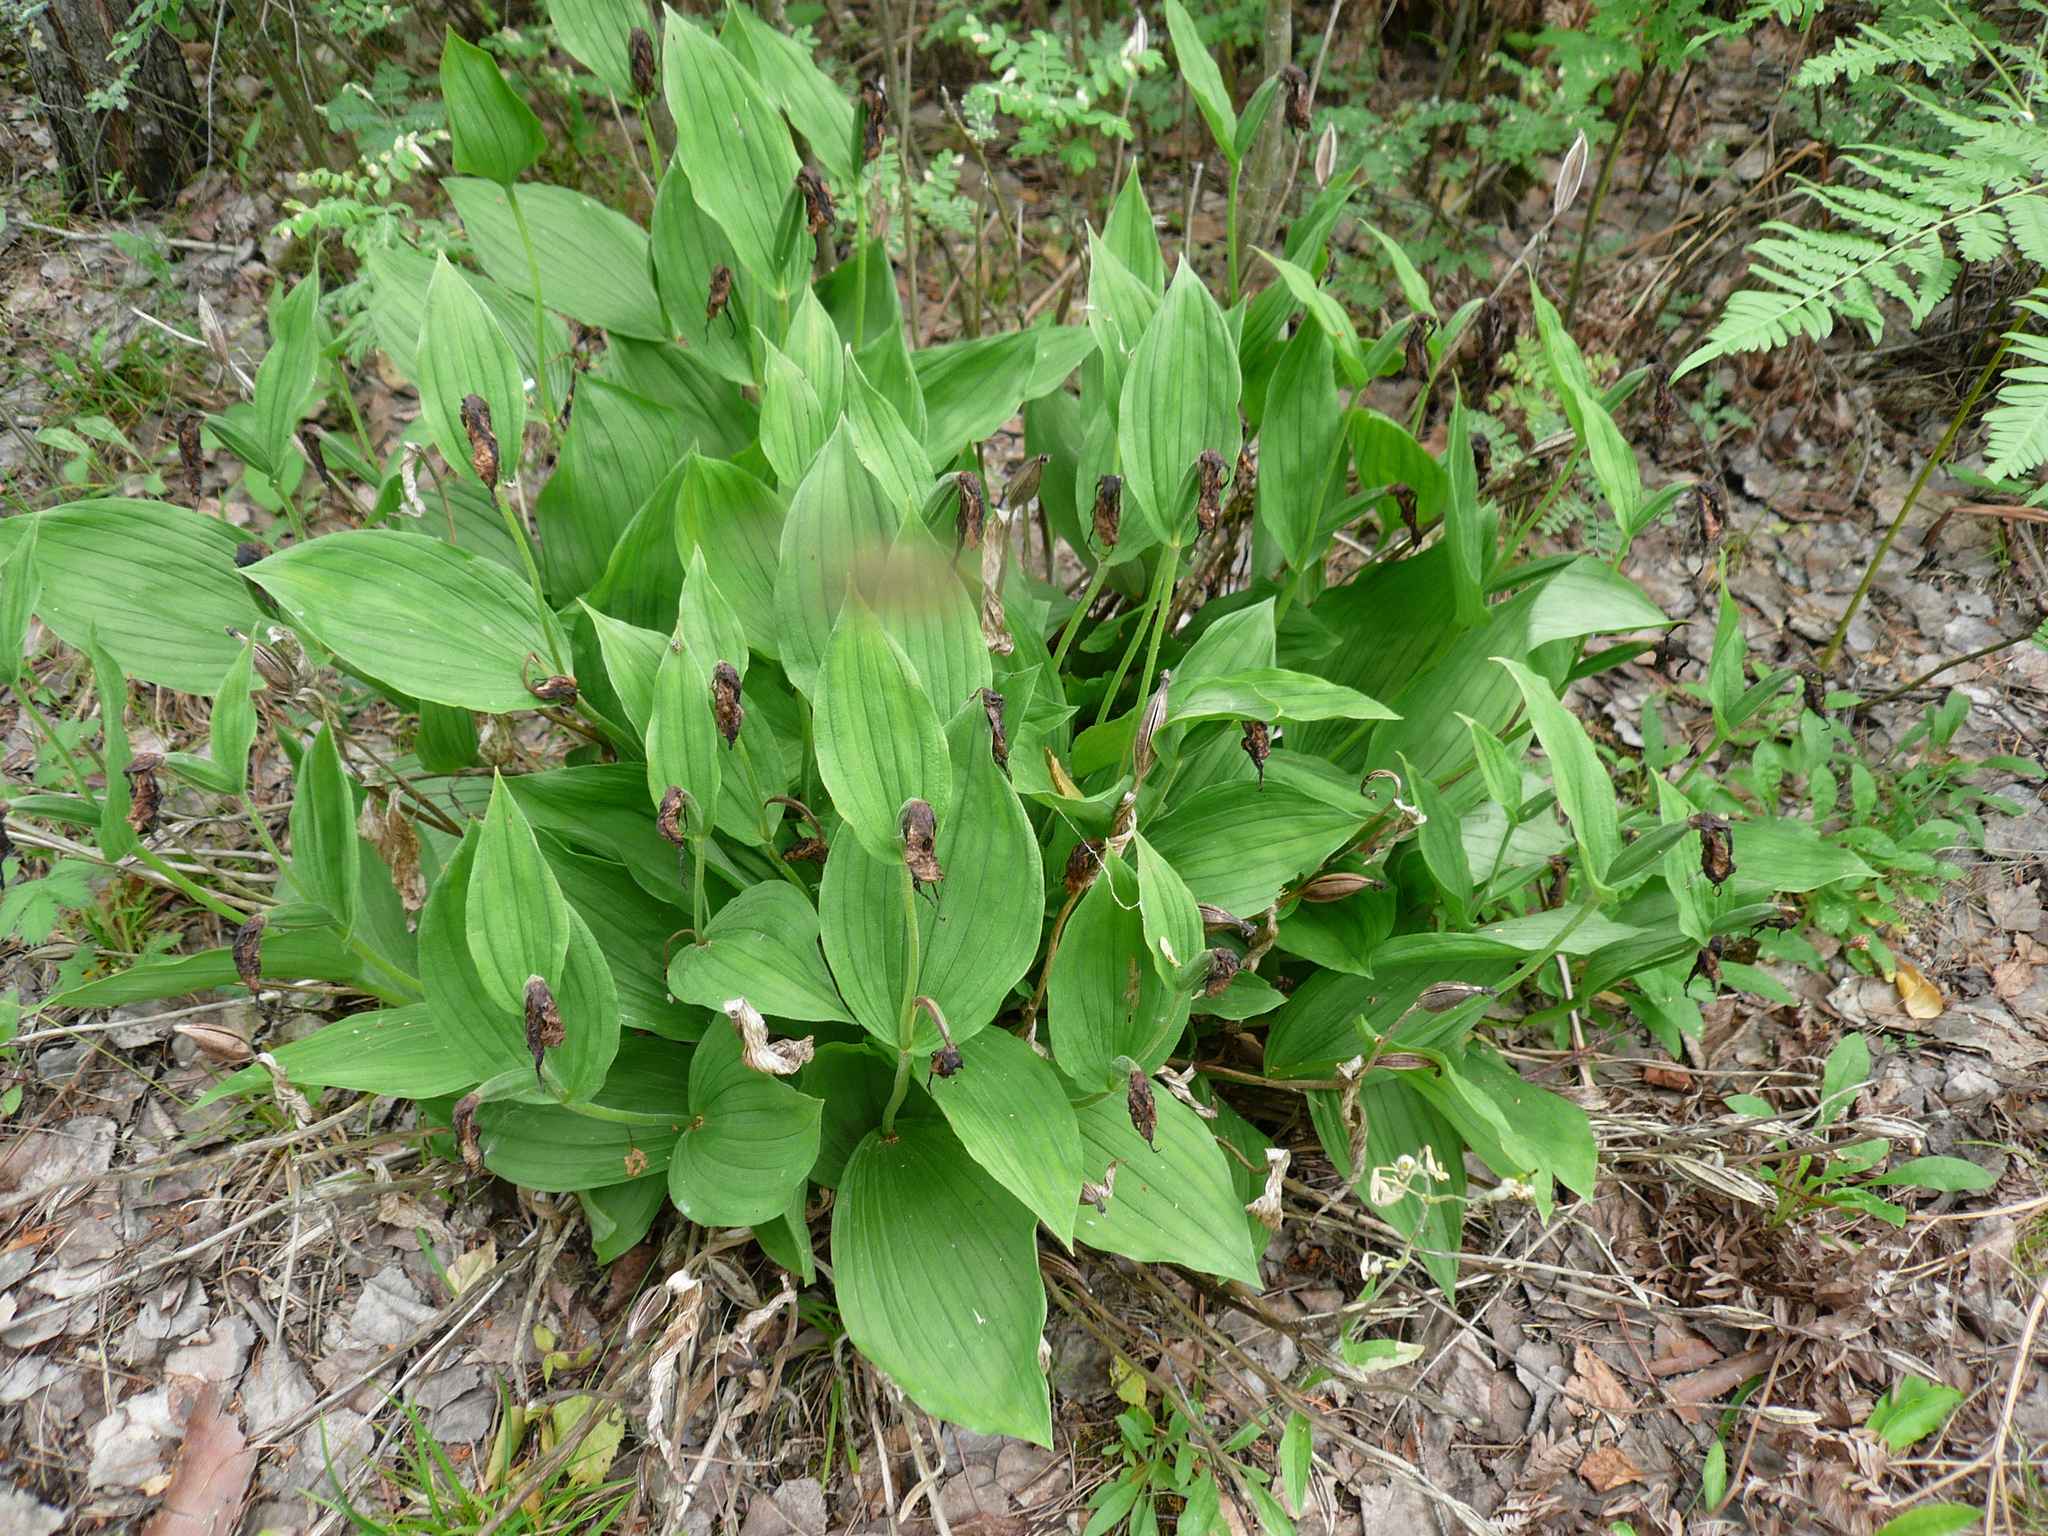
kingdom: Plantae
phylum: Tracheophyta
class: Liliopsida
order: Asparagales
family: Orchidaceae
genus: Cypripedium
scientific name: Cypripedium calceolus
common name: Lady's-slipper
